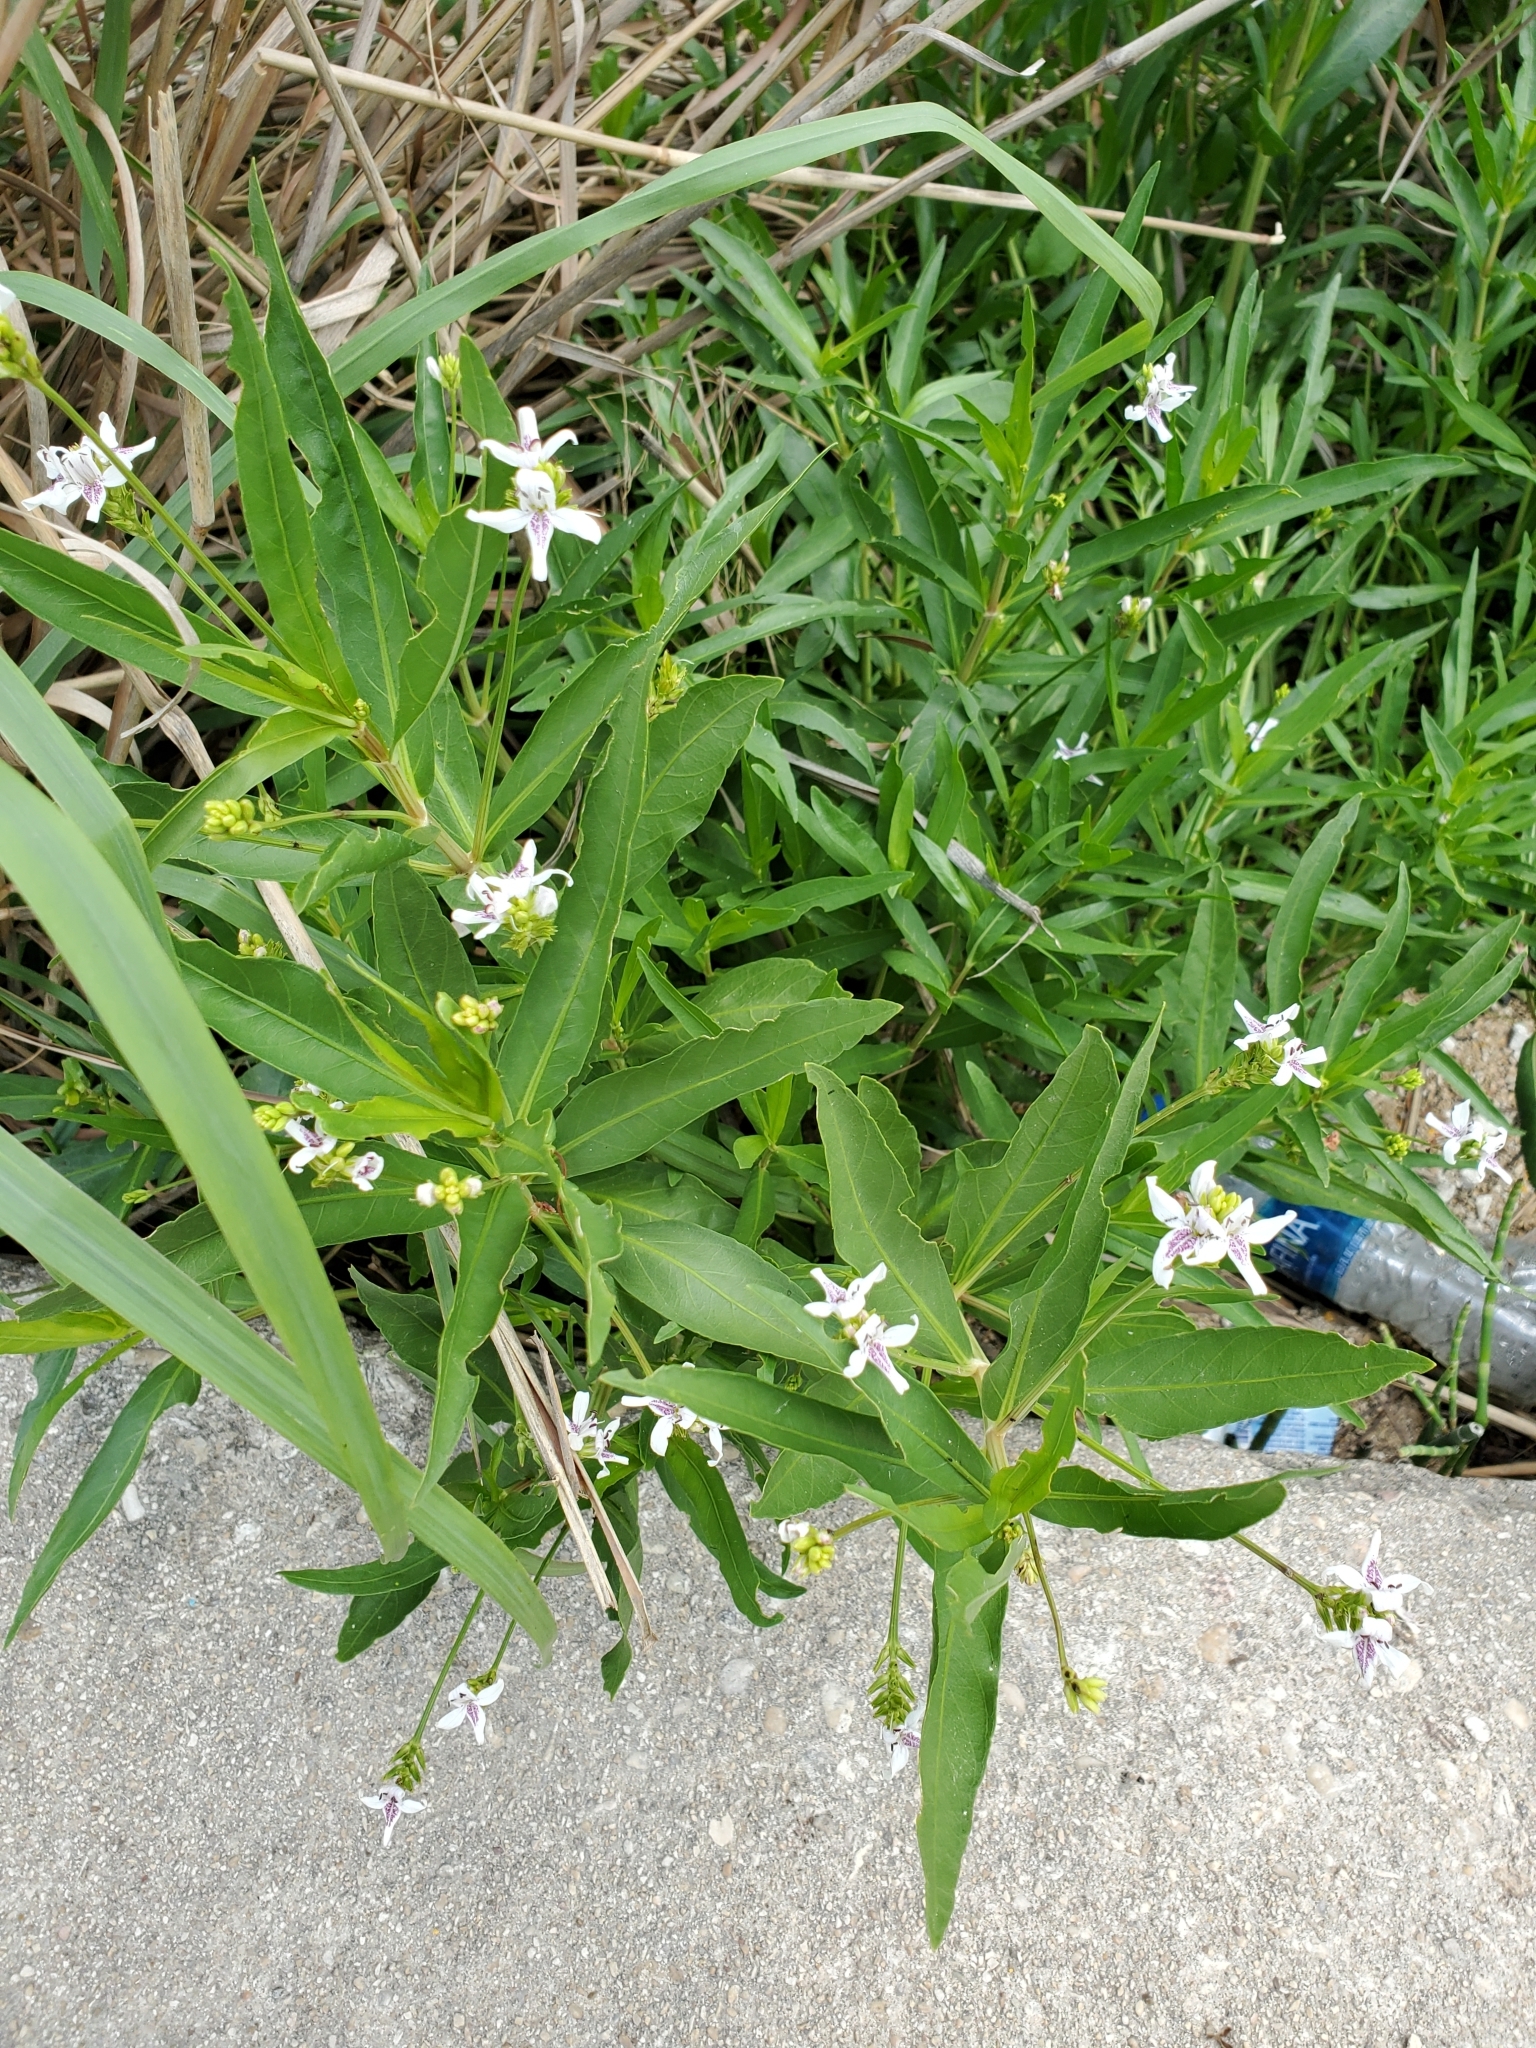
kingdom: Plantae
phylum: Tracheophyta
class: Magnoliopsida
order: Lamiales
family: Acanthaceae
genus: Dianthera
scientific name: Dianthera americana
